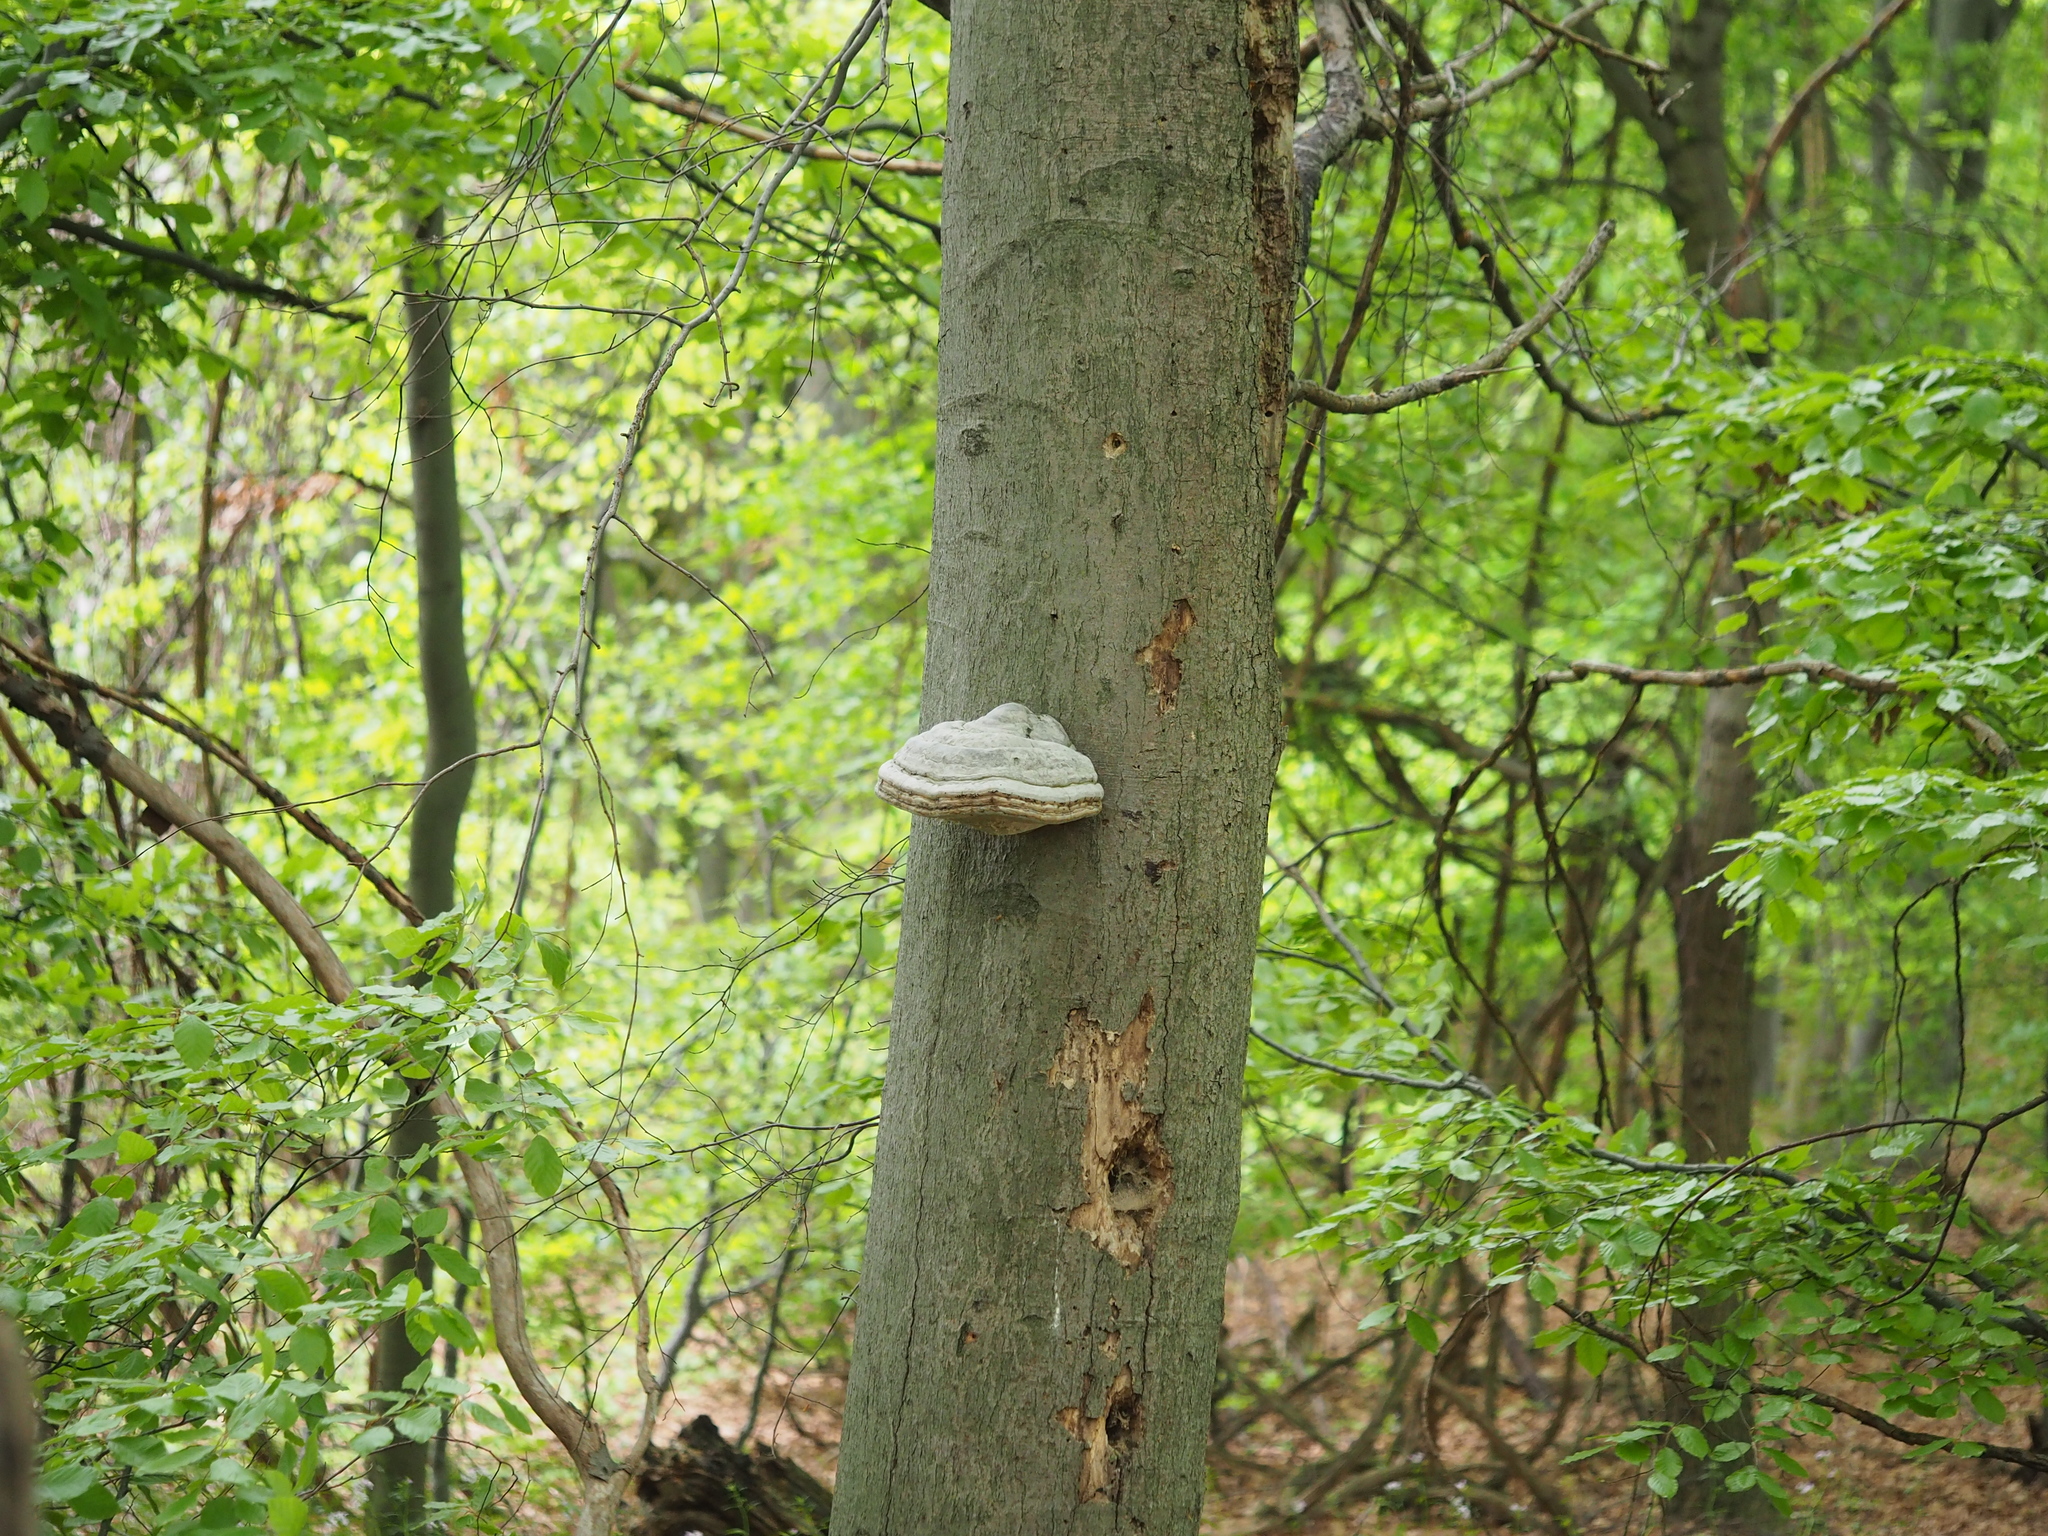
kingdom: Fungi
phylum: Basidiomycota
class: Agaricomycetes
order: Polyporales
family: Polyporaceae
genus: Fomes
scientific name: Fomes fomentarius
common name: Hoof fungus
